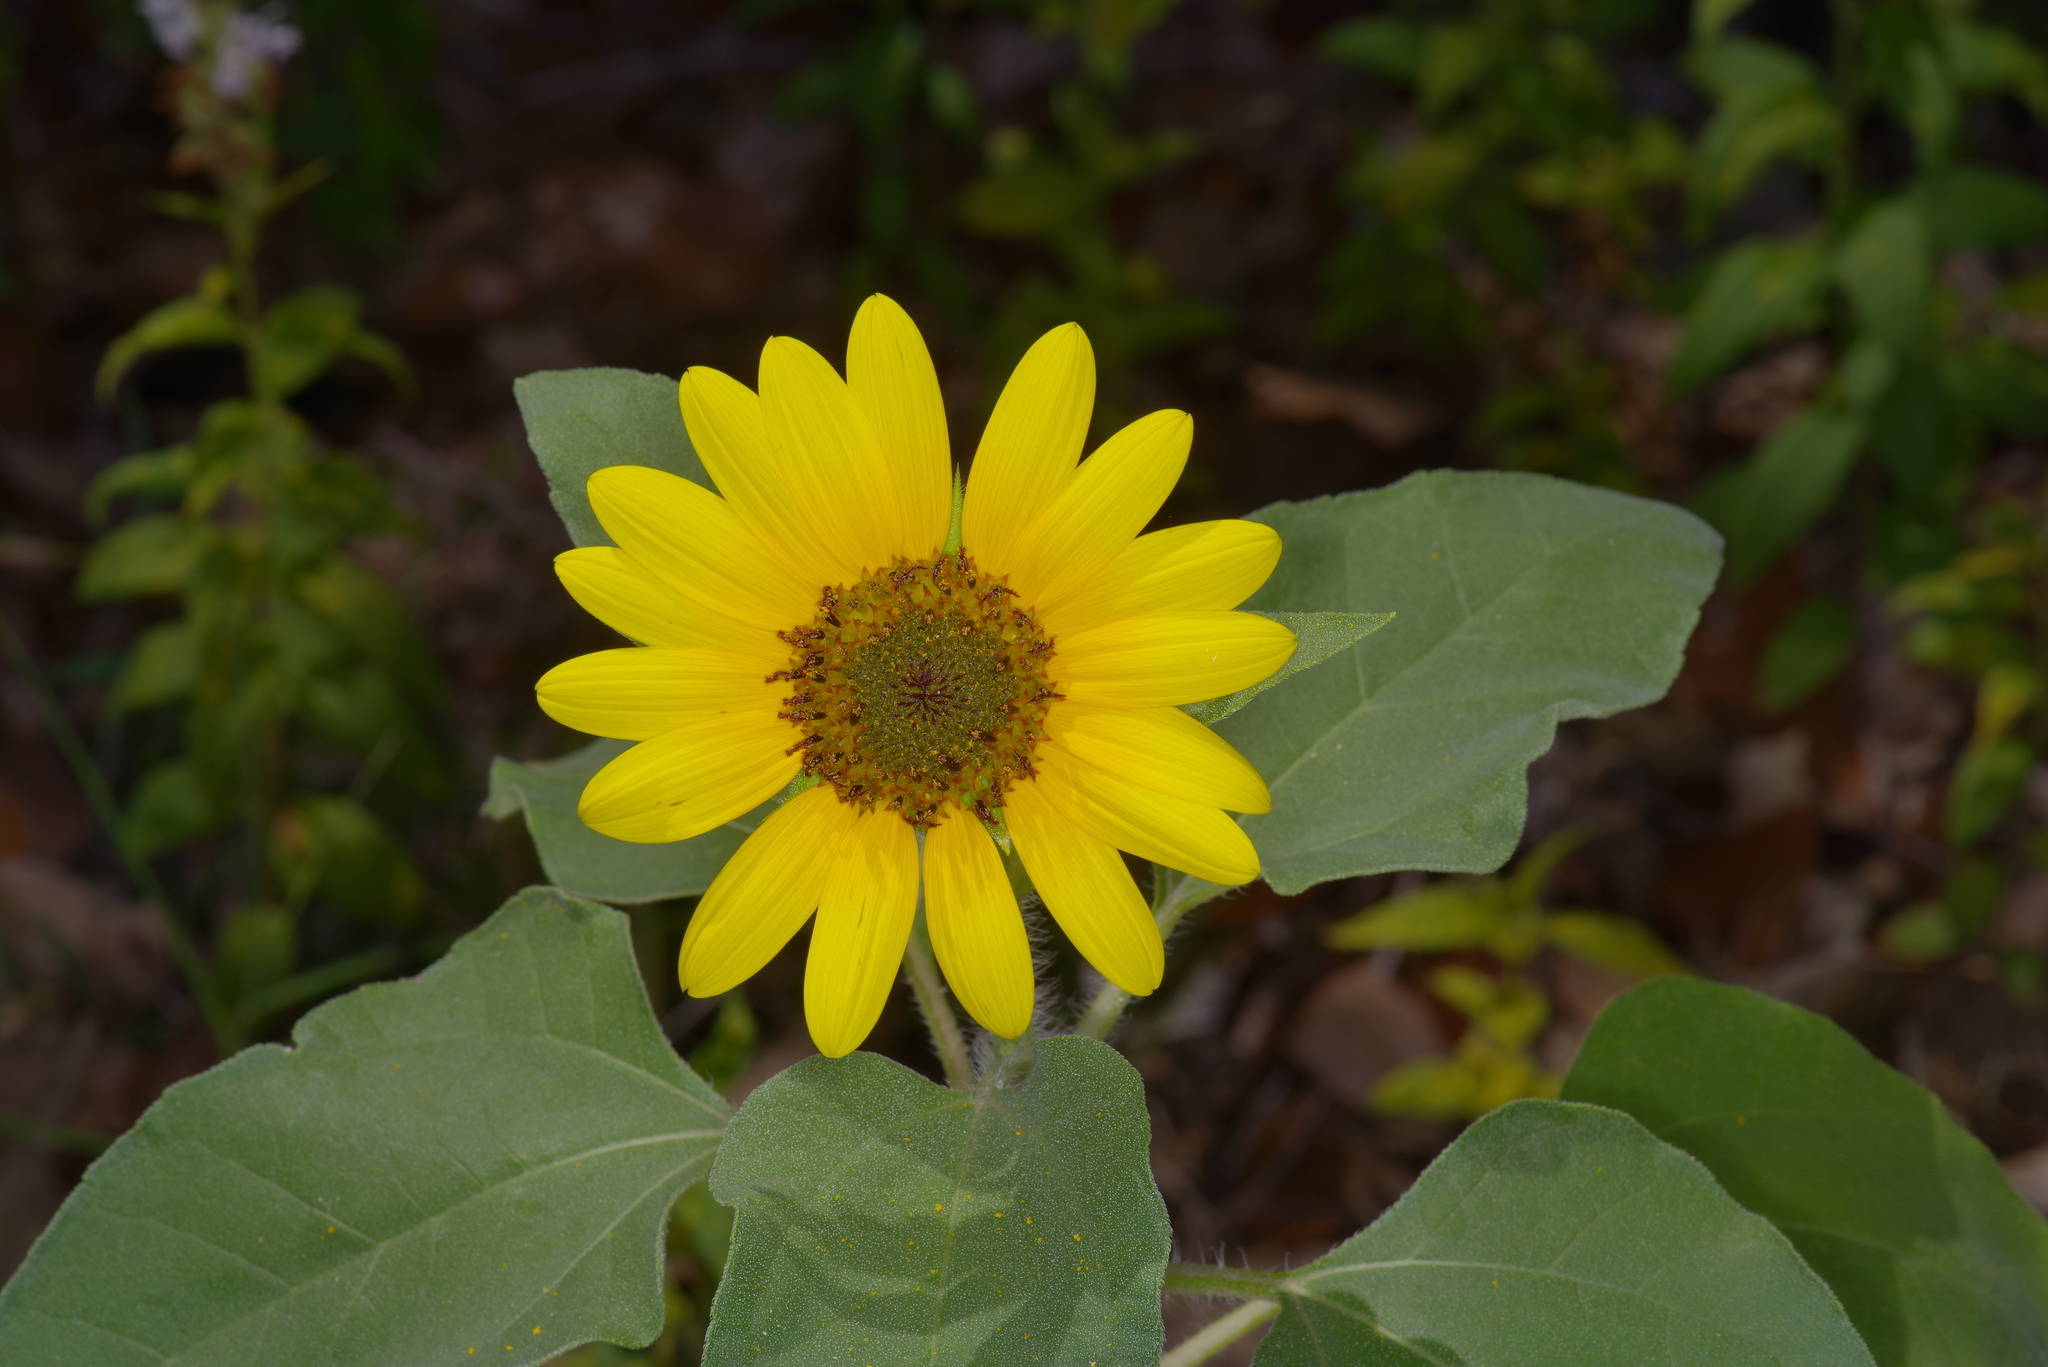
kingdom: Plantae
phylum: Tracheophyta
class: Magnoliopsida
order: Asterales
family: Asteraceae
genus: Helianthus
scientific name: Helianthus annuus
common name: Sunflower
